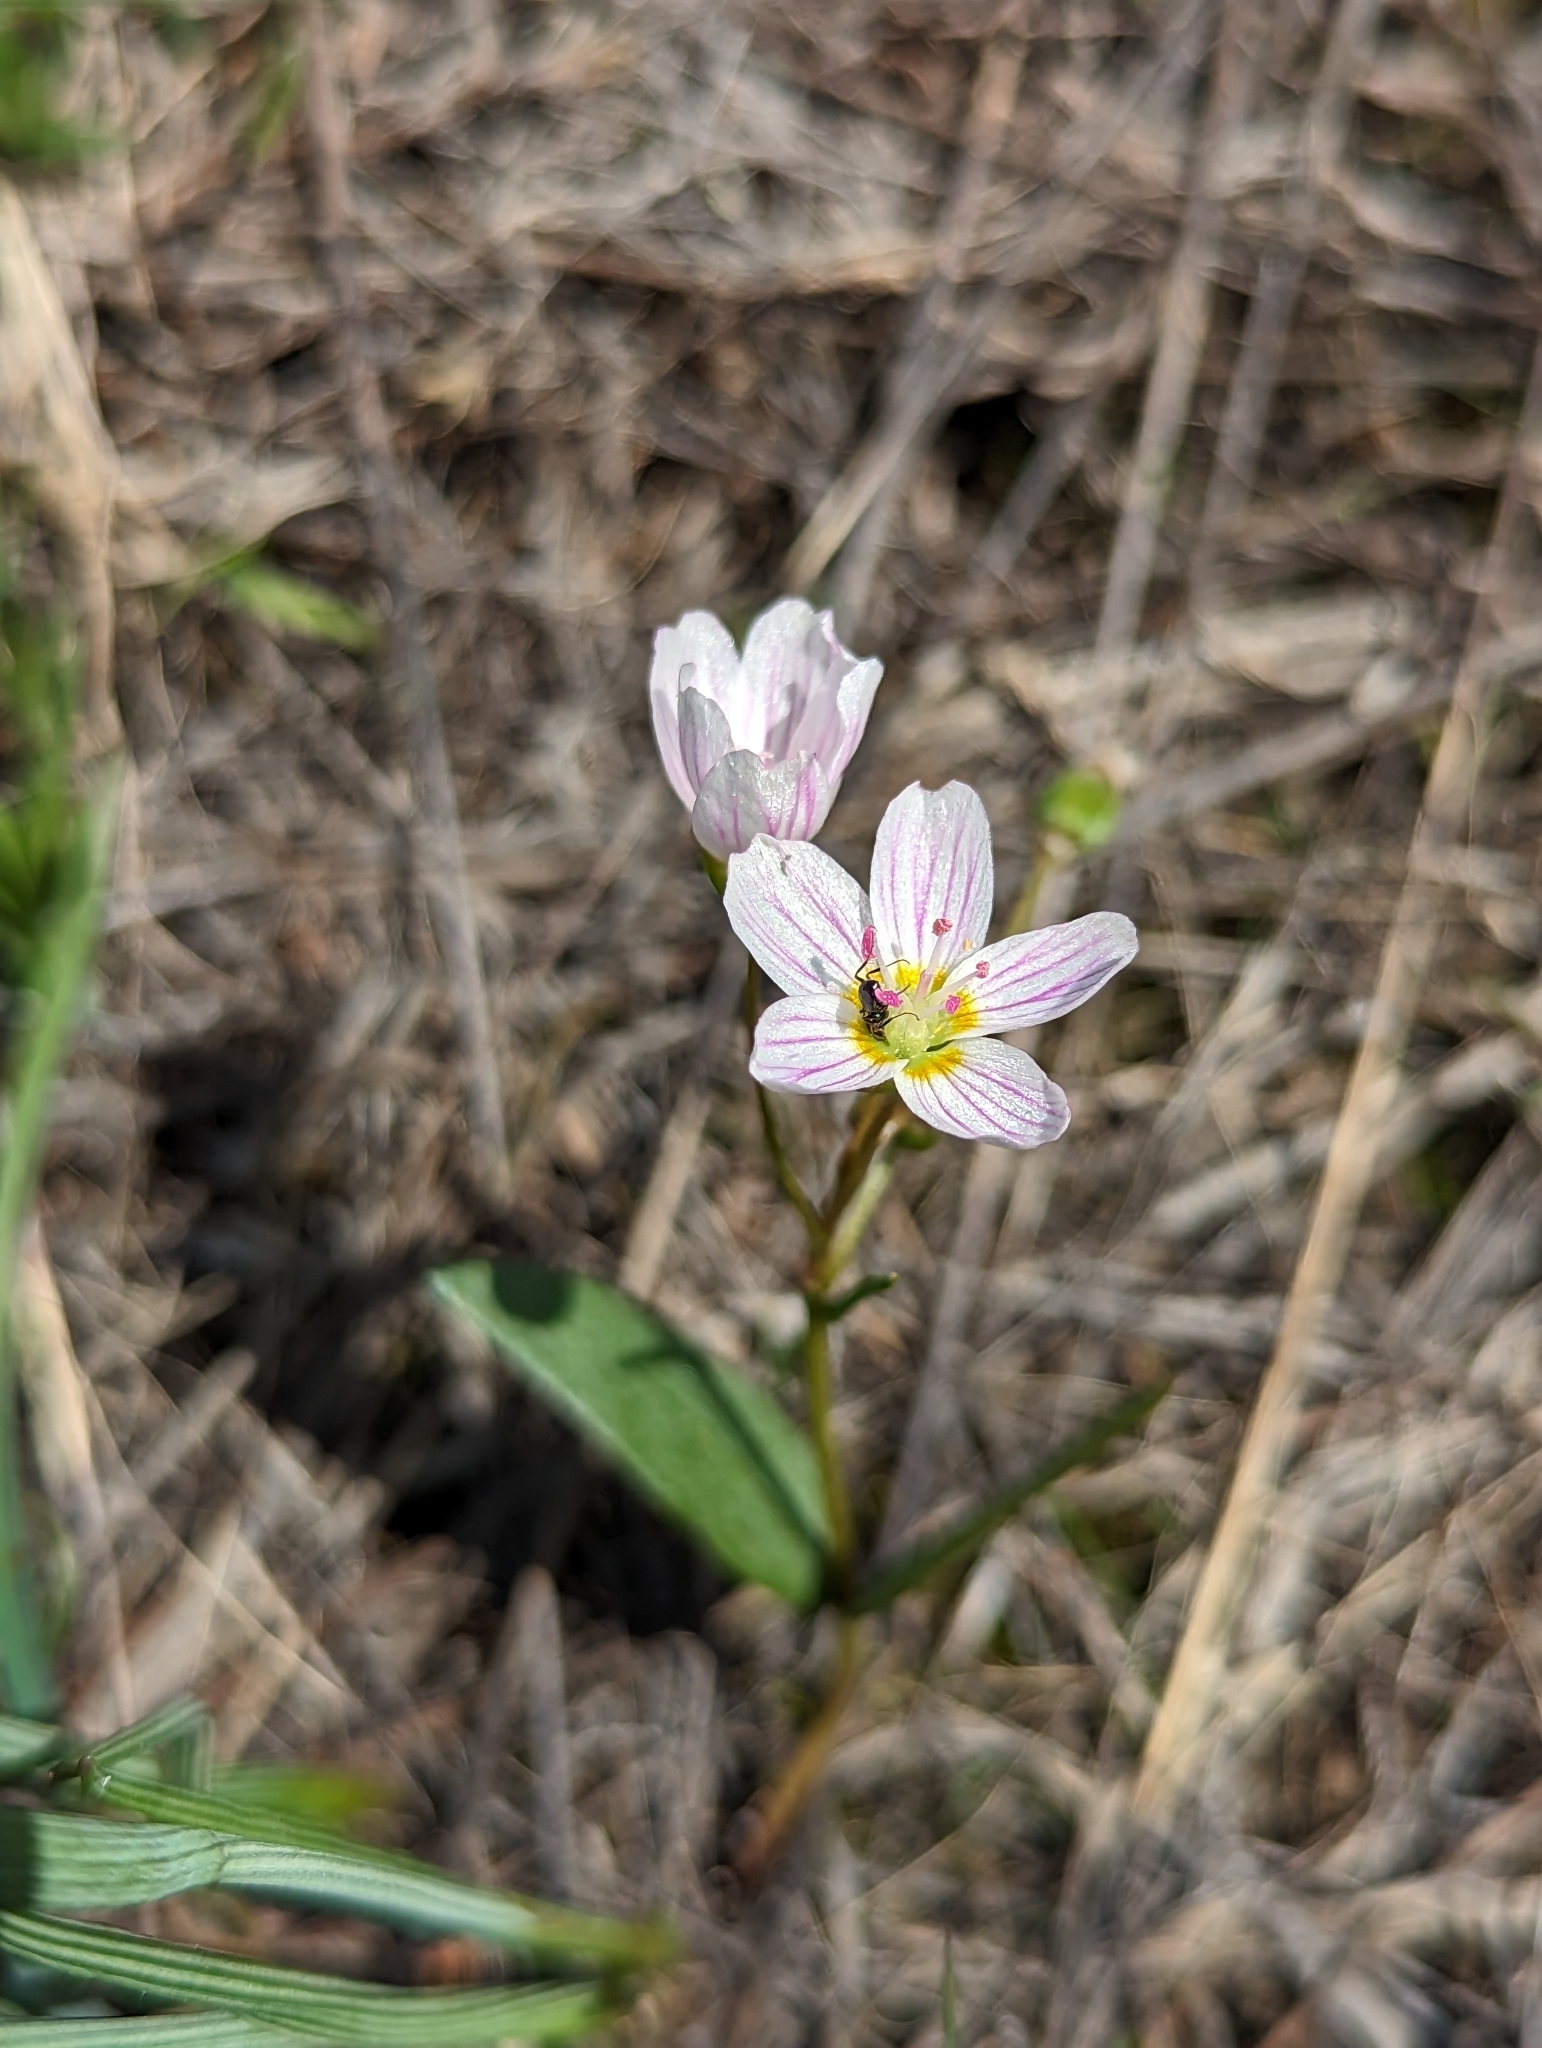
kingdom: Plantae
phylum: Tracheophyta
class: Magnoliopsida
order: Caryophyllales
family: Montiaceae
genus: Claytonia
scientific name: Claytonia lanceolata
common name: Western spring-beauty
